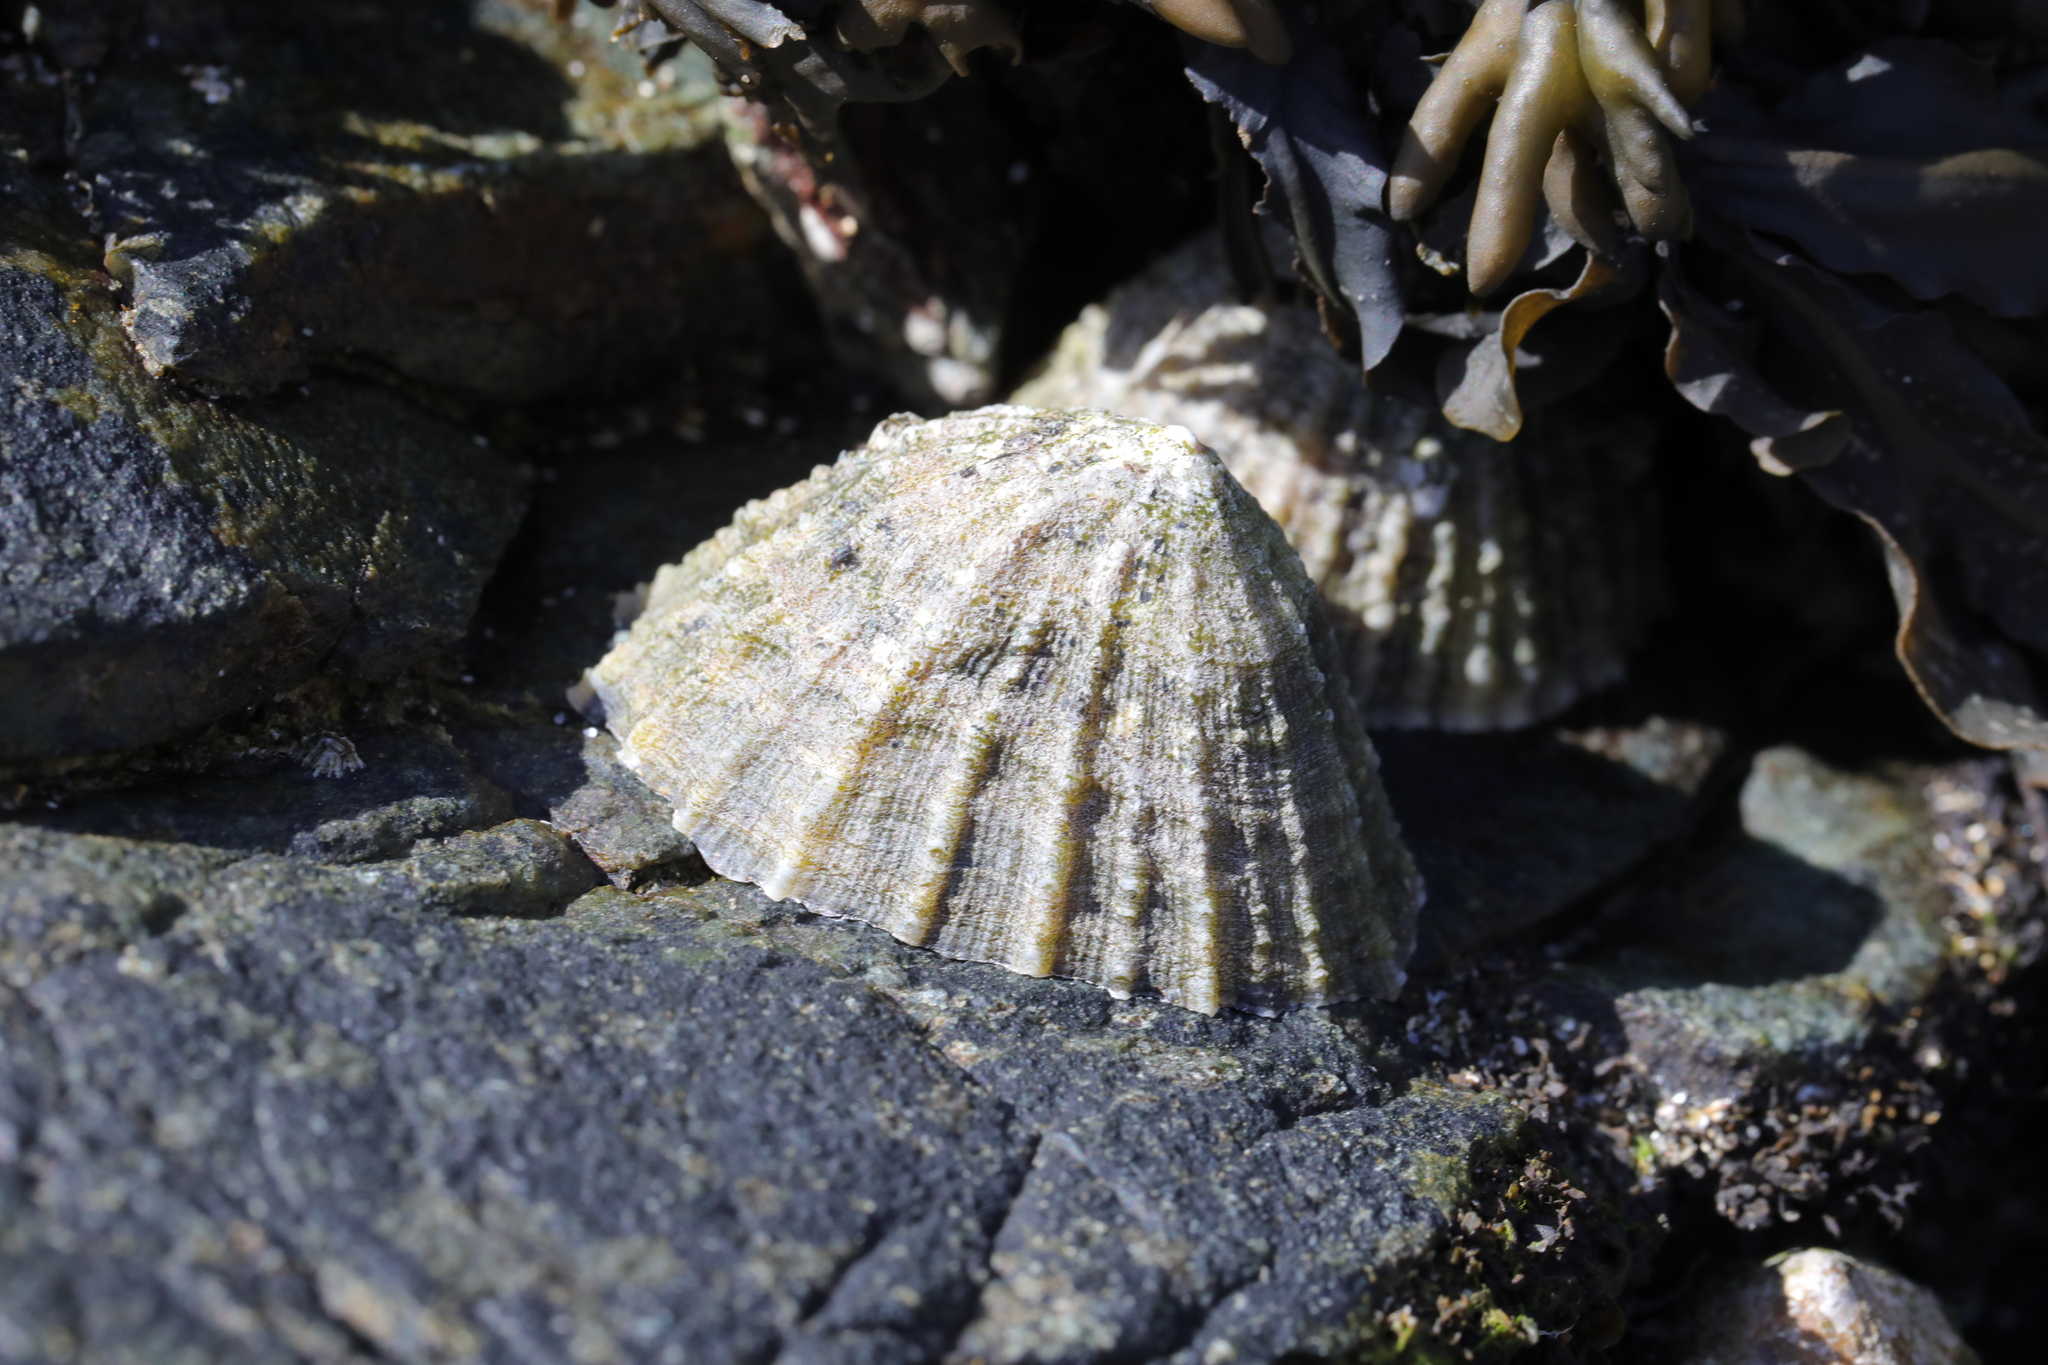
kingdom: Animalia
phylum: Mollusca
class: Gastropoda
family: Patellidae
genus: Patella
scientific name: Patella vulgata
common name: Common limpet
